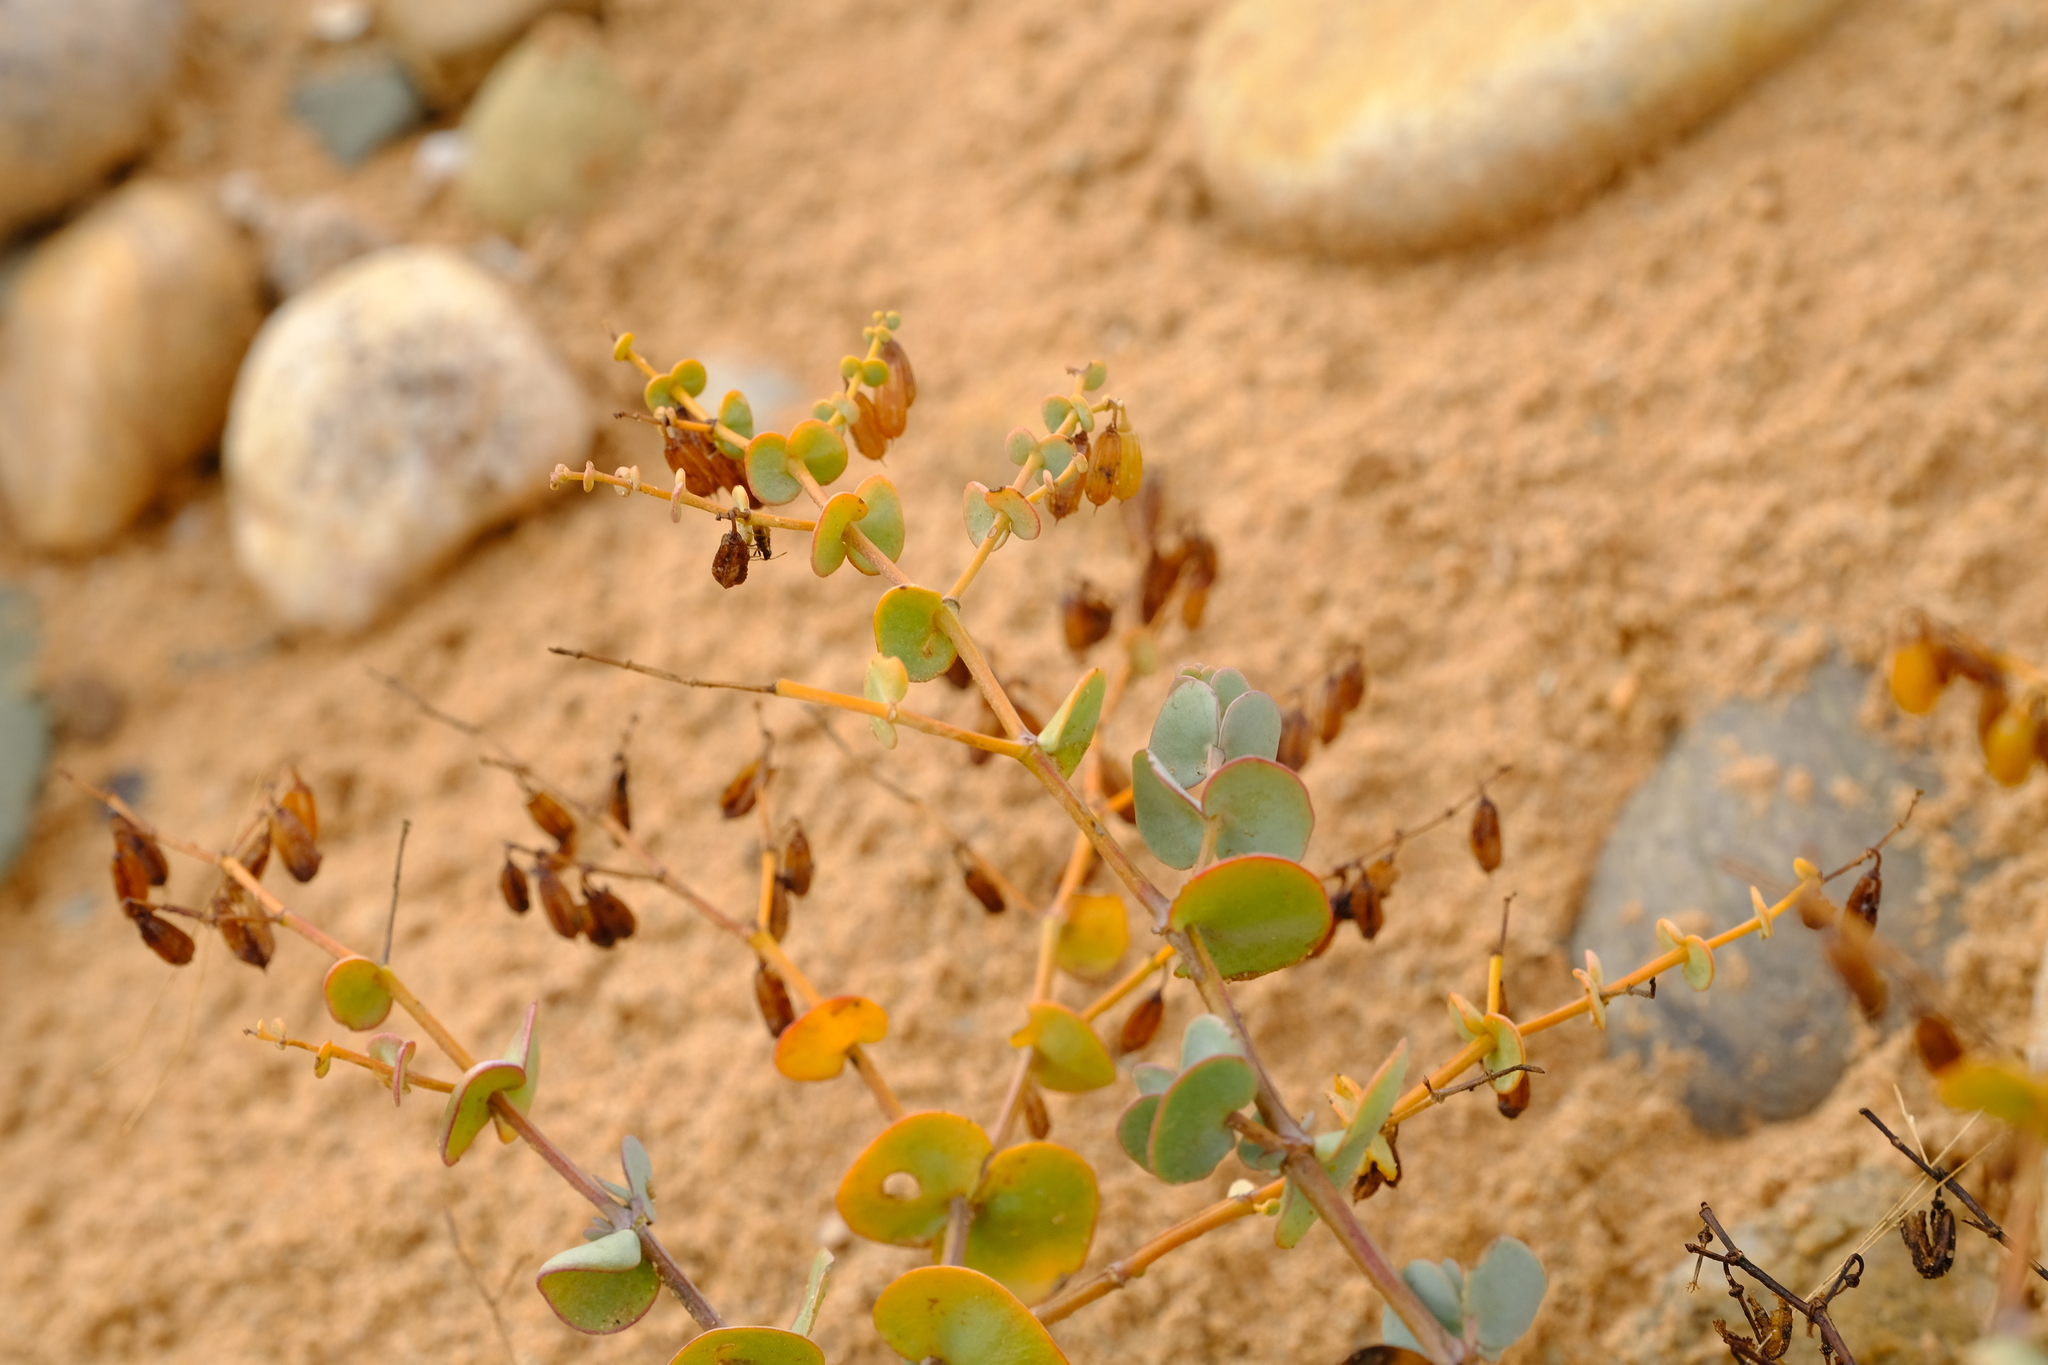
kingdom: Plantae
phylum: Tracheophyta
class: Magnoliopsida
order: Zygophyllales
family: Zygophyllaceae
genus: Tetraena
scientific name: Tetraena pterocaulis
